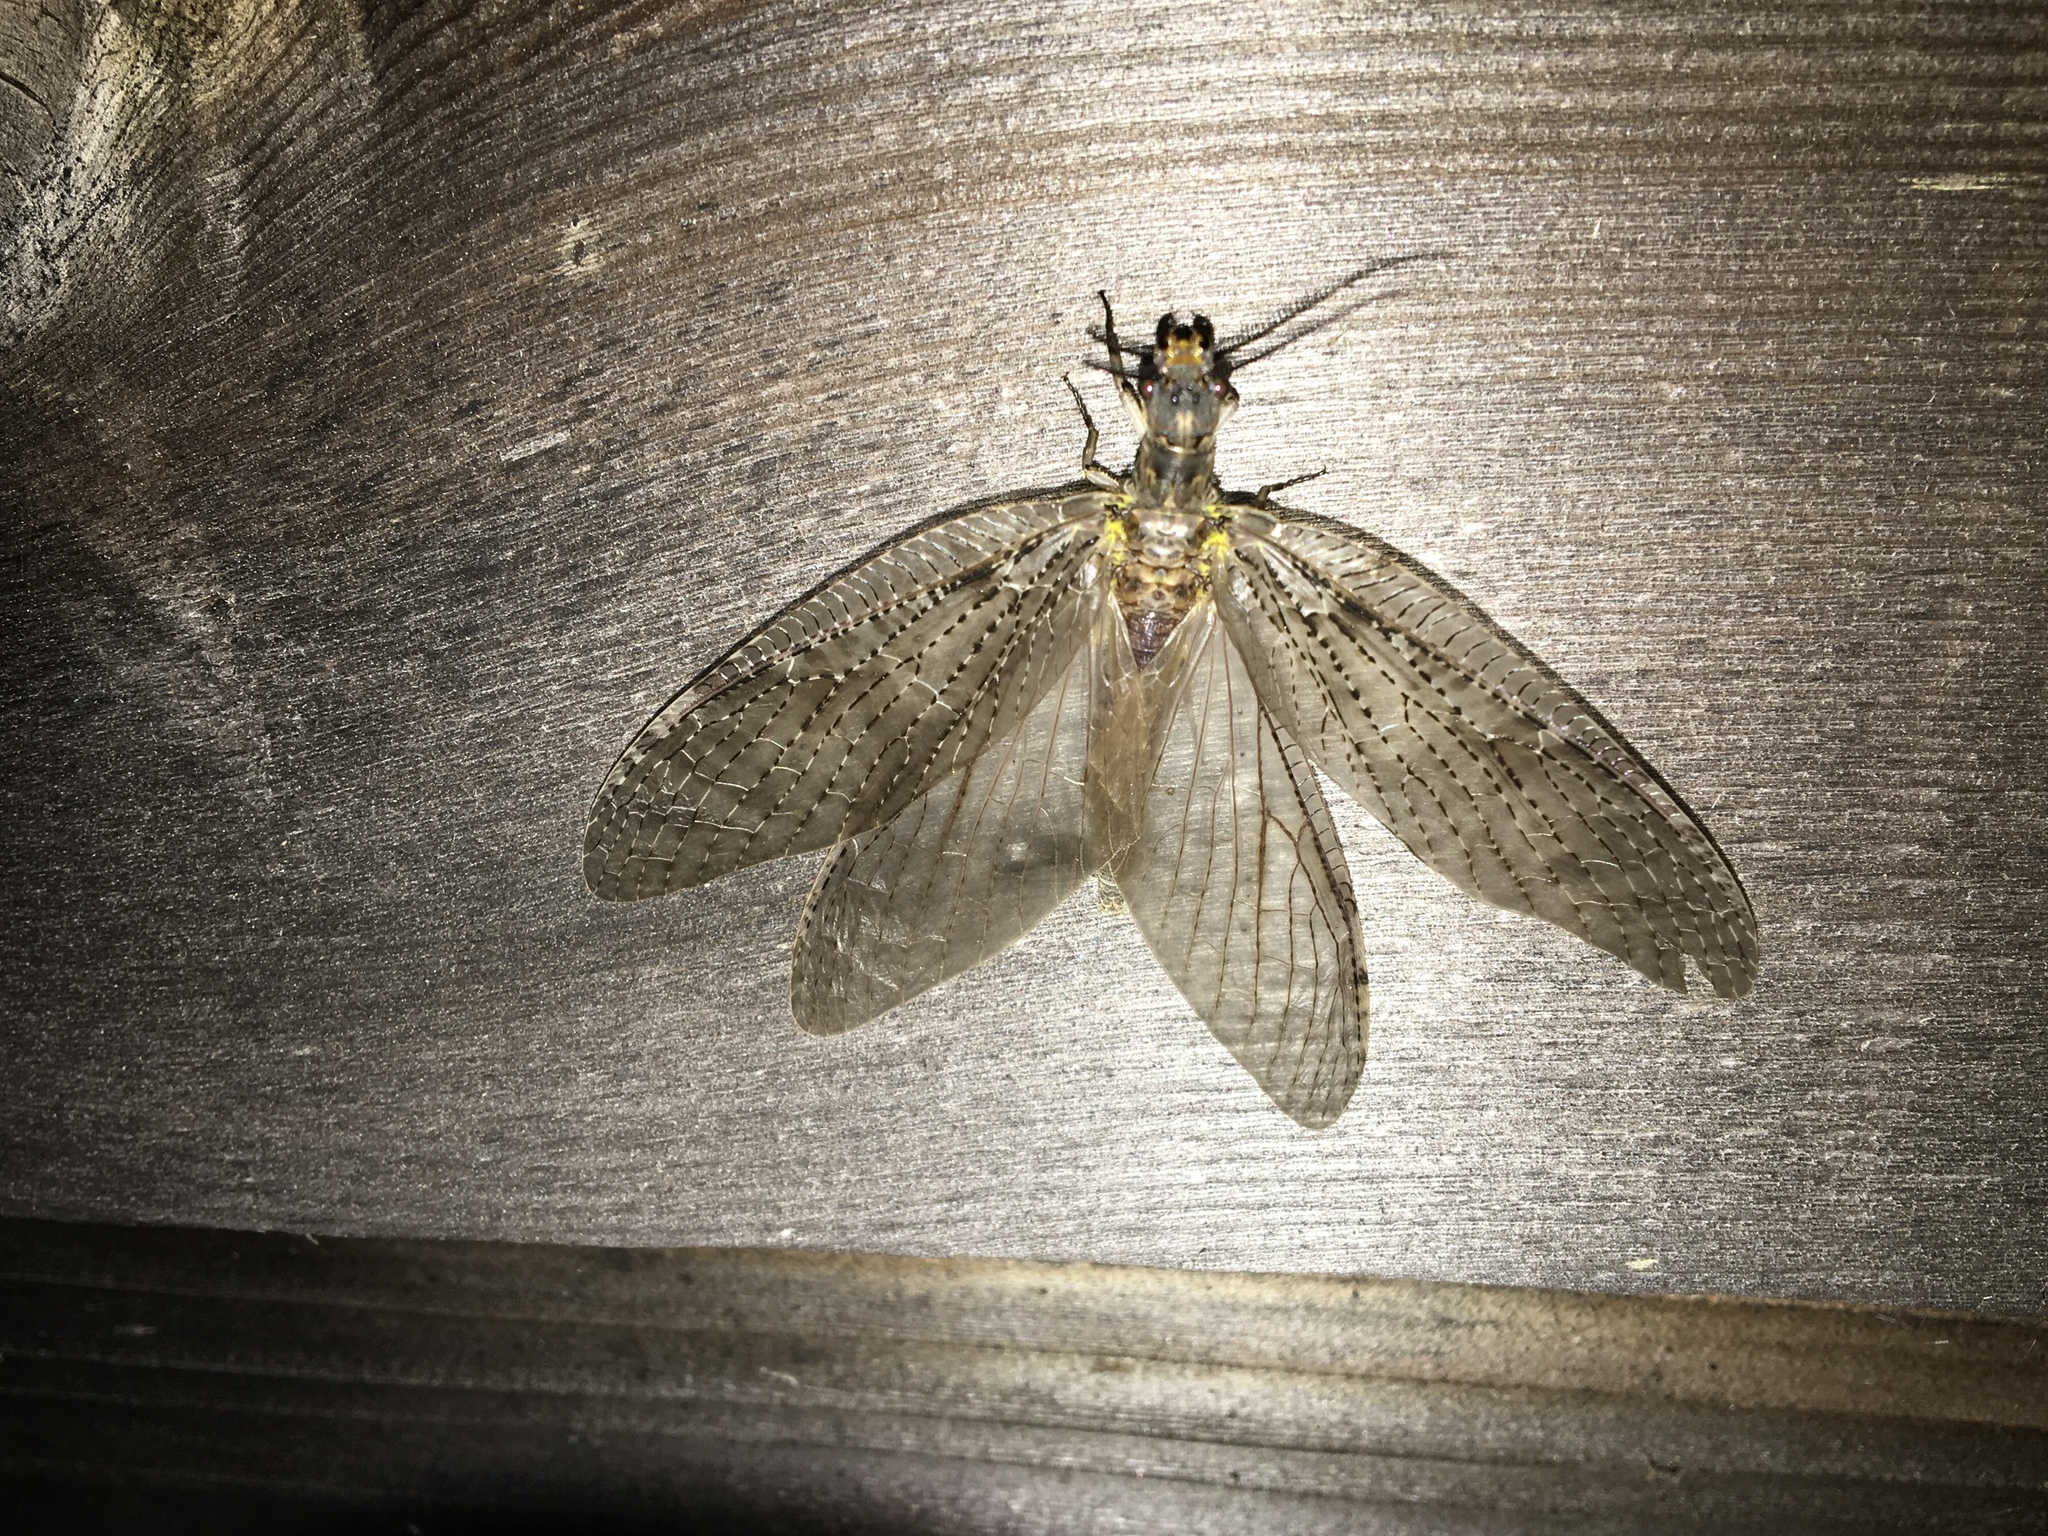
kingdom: Animalia
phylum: Arthropoda
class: Insecta
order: Megaloptera
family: Corydalidae
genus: Chauliodes
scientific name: Chauliodes pectinicornis
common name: Summer fishfly
